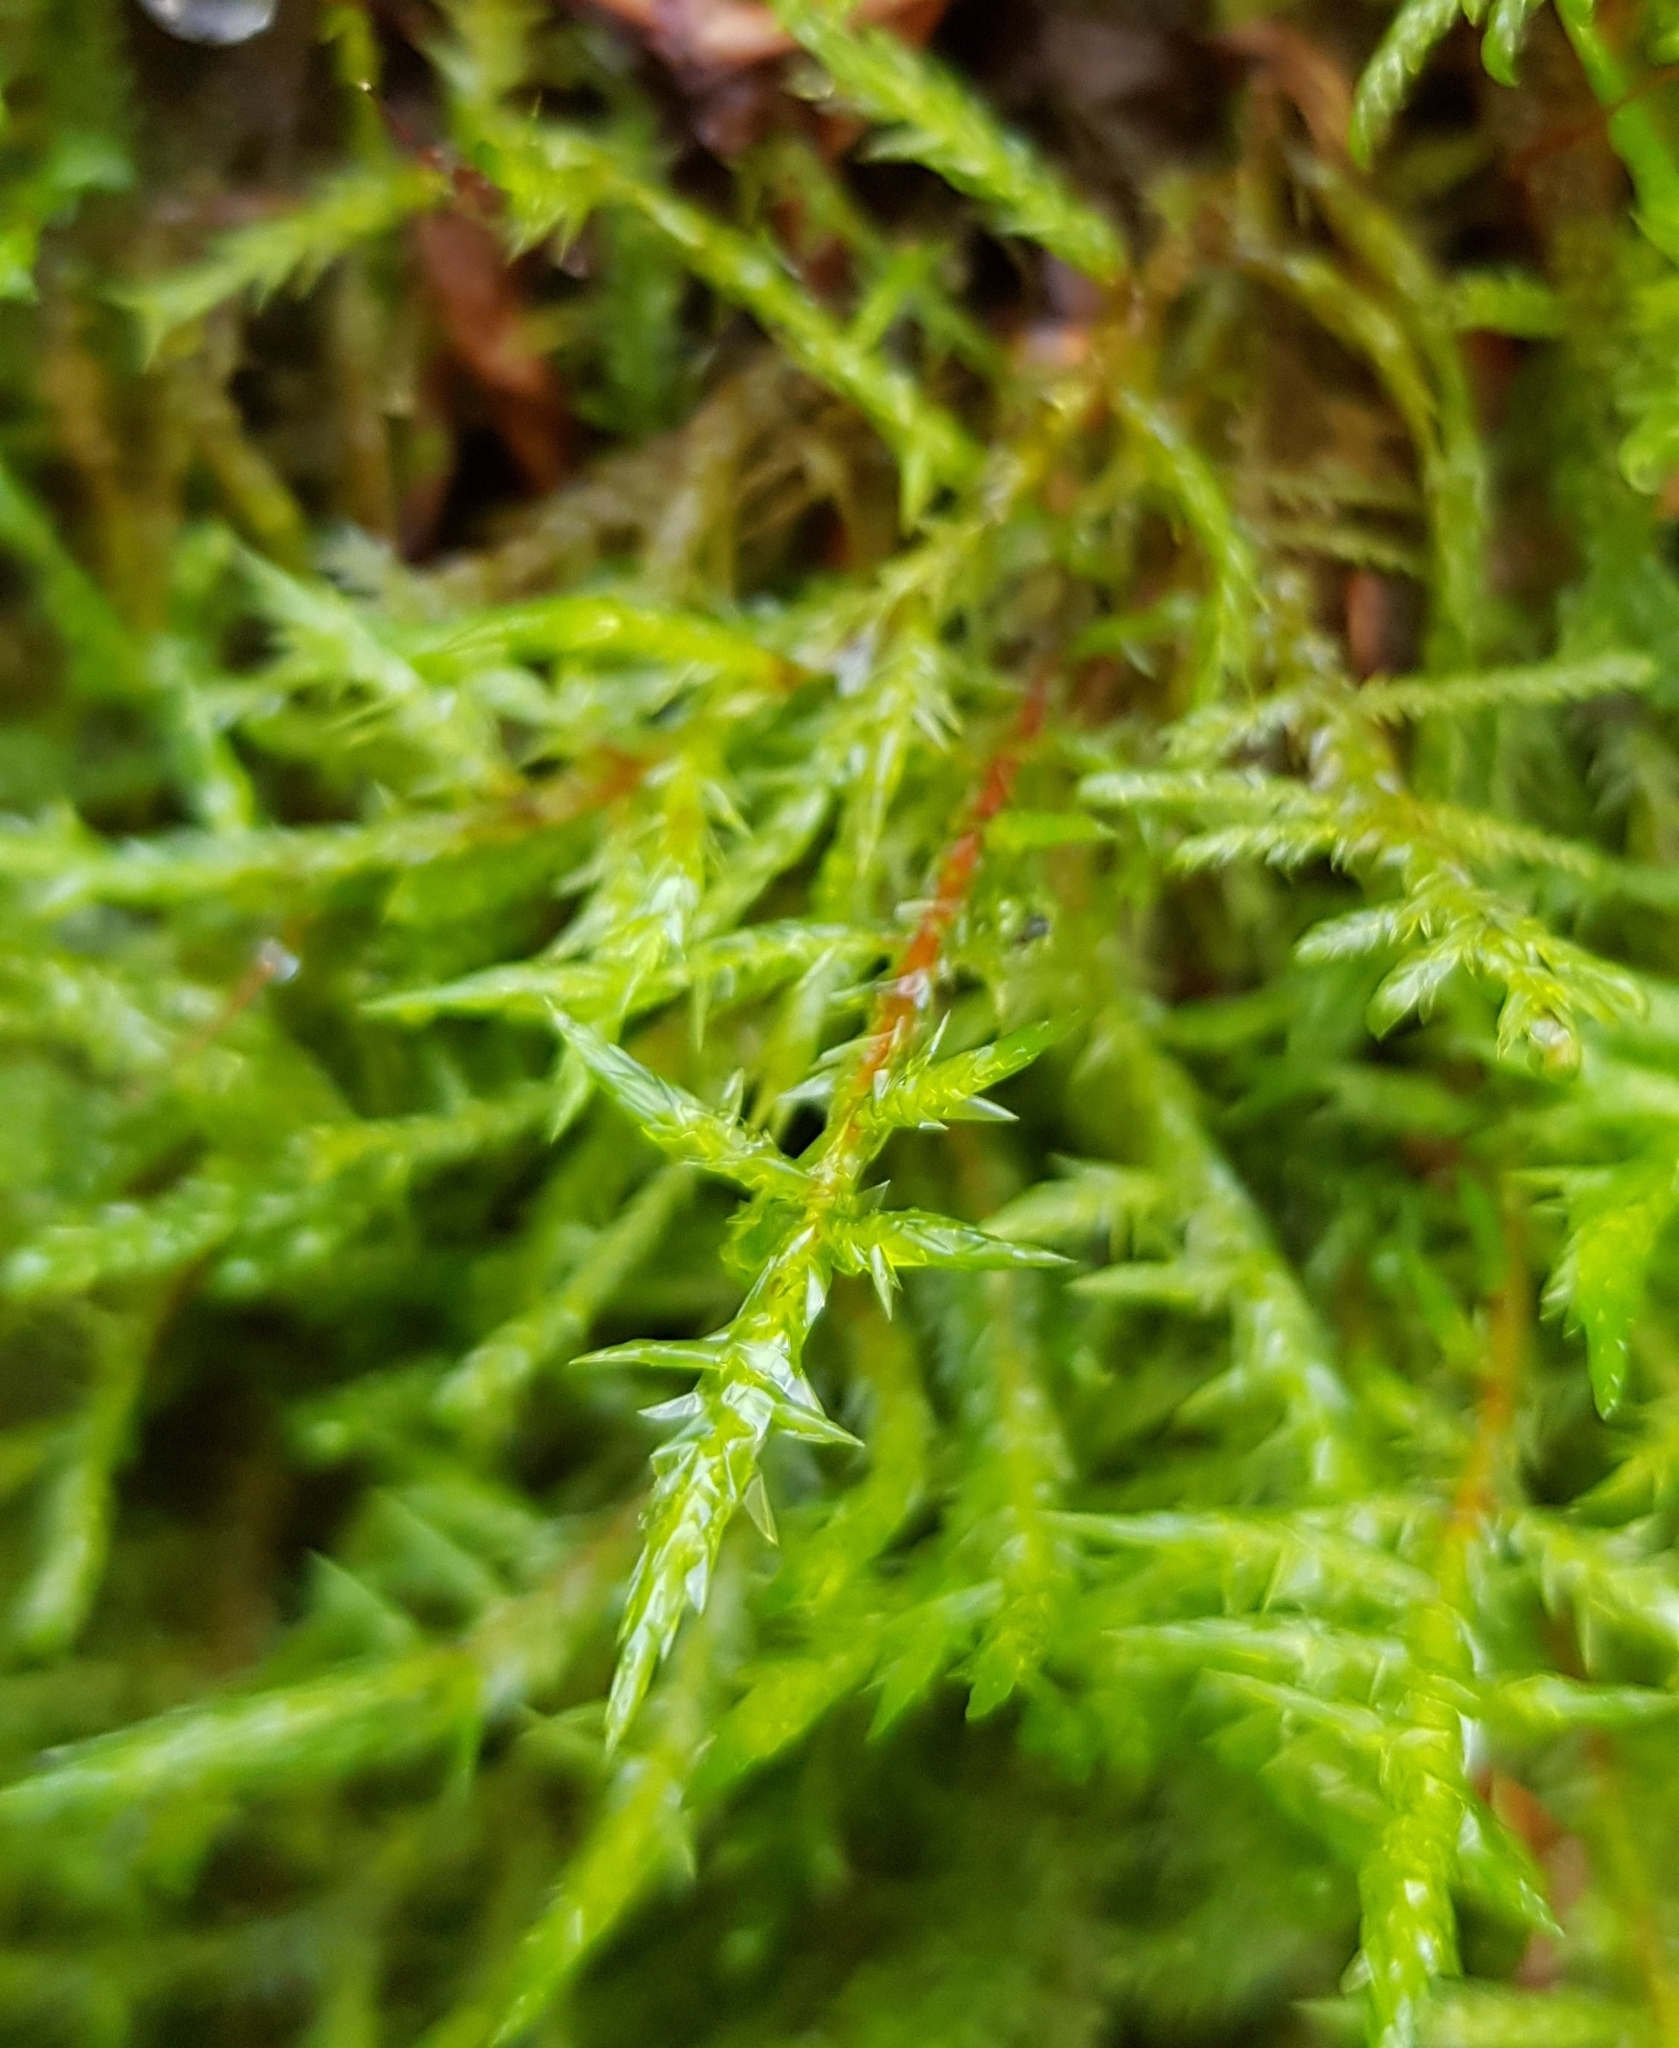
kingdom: Plantae
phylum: Bryophyta
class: Bryopsida
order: Hypnales
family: Pylaisiaceae
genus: Calliergonella
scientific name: Calliergonella cuspidata
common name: Common large wetland moss
